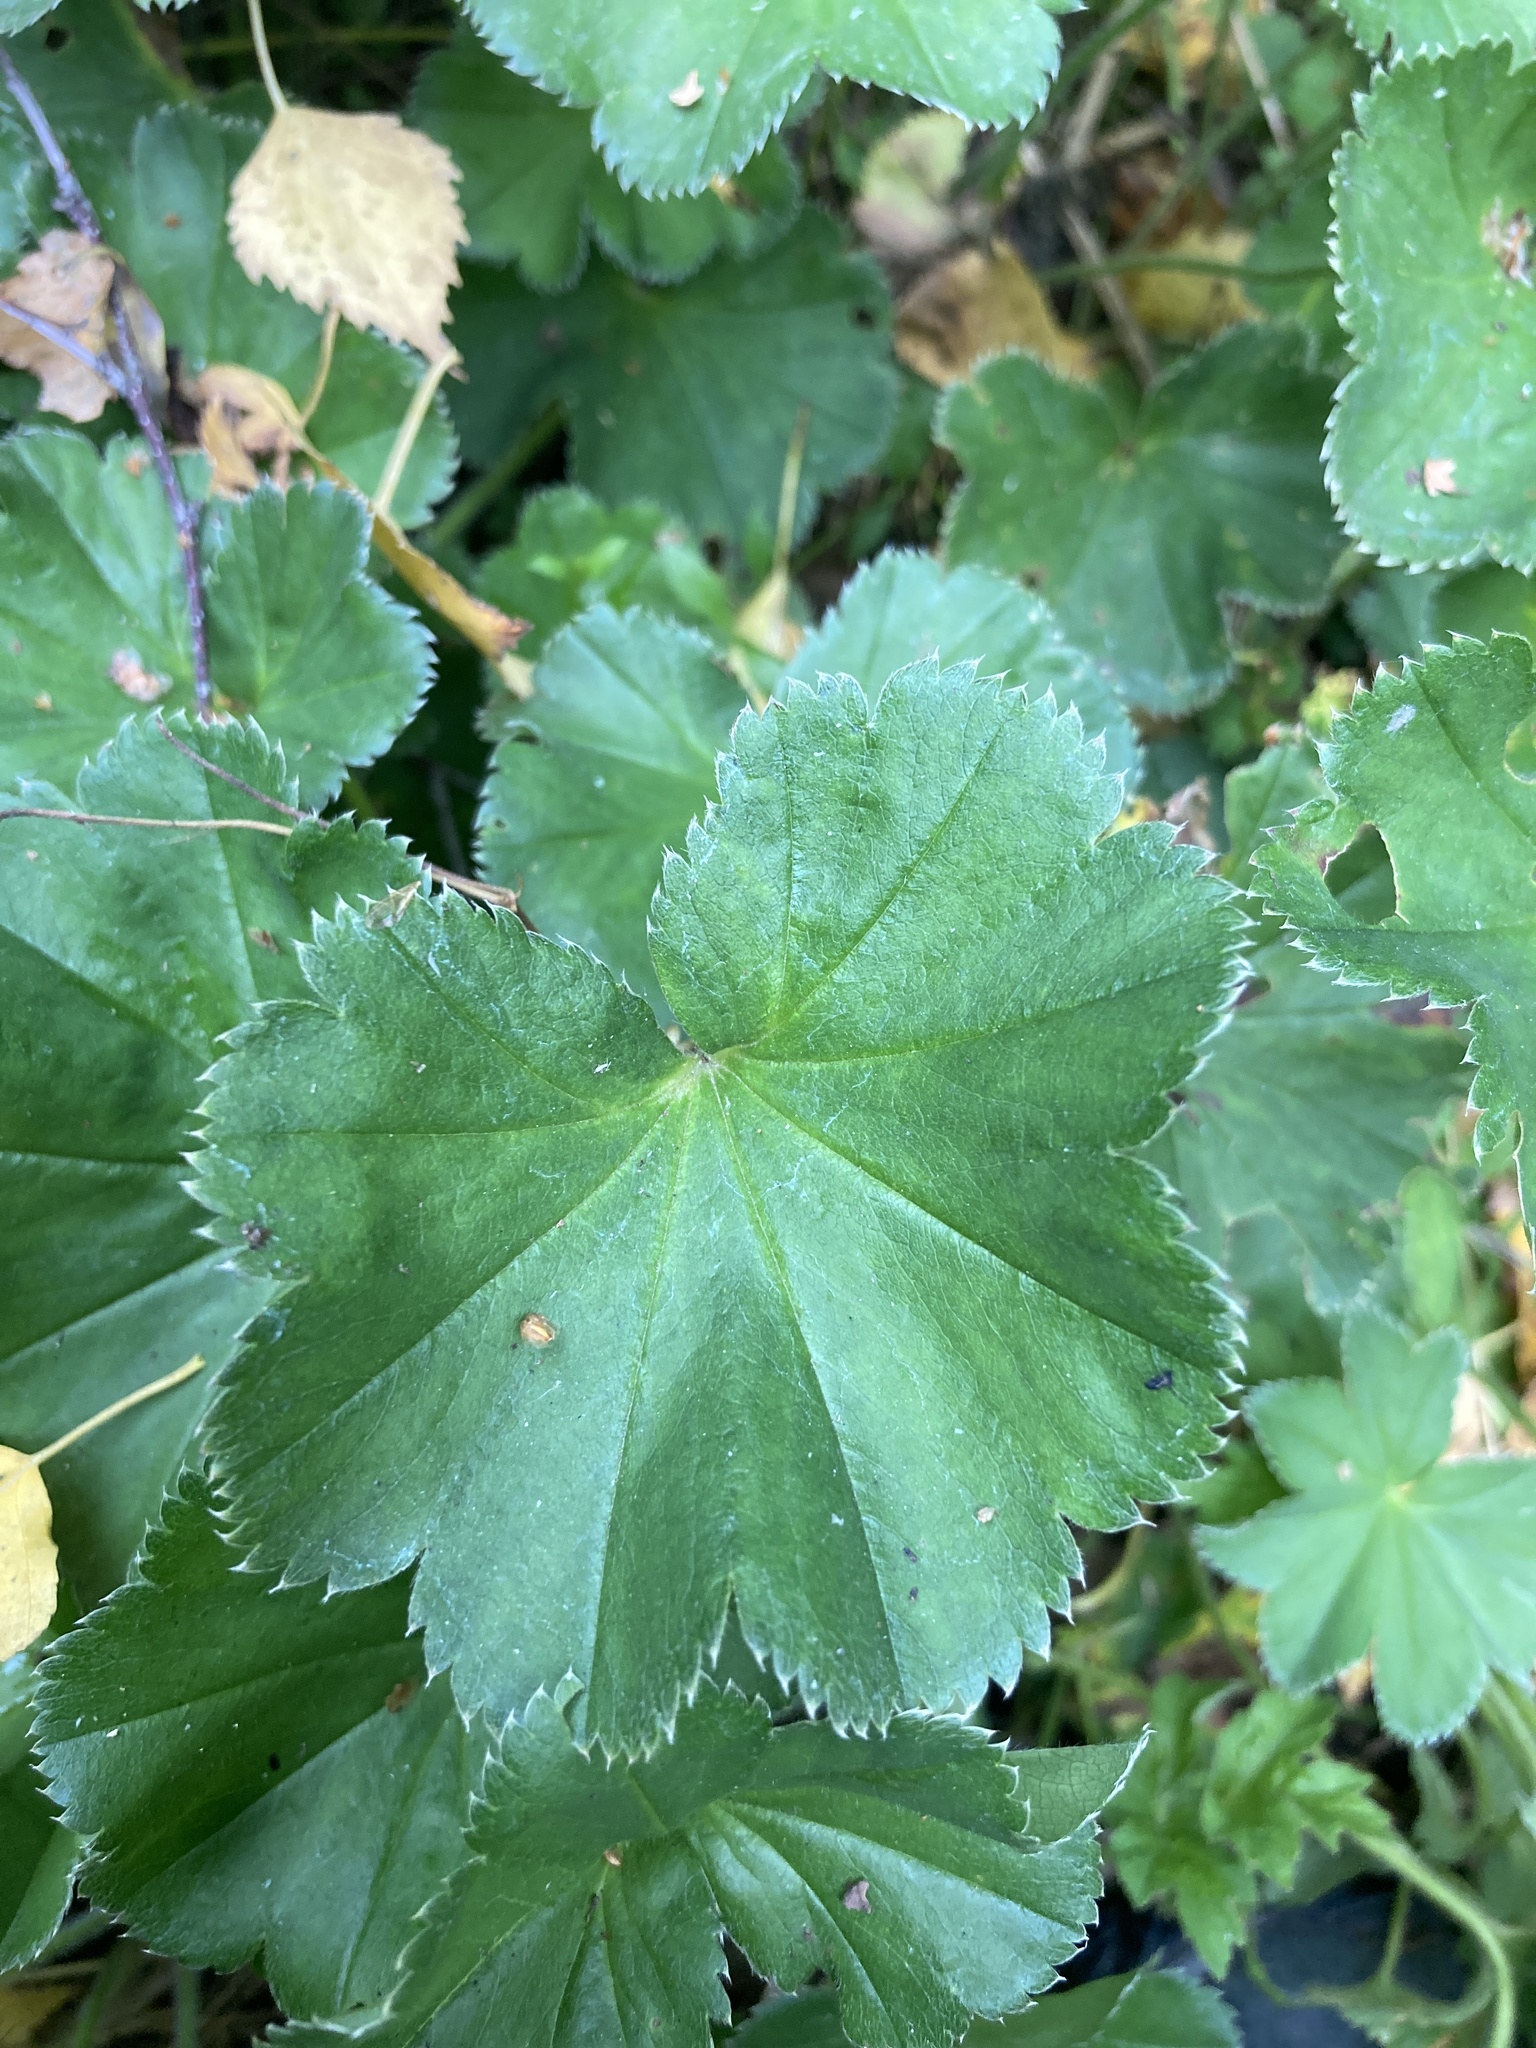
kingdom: Plantae
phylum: Tracheophyta
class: Magnoliopsida
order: Rosales
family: Rosaceae
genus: Alchemilla
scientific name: Alchemilla semilunaris
